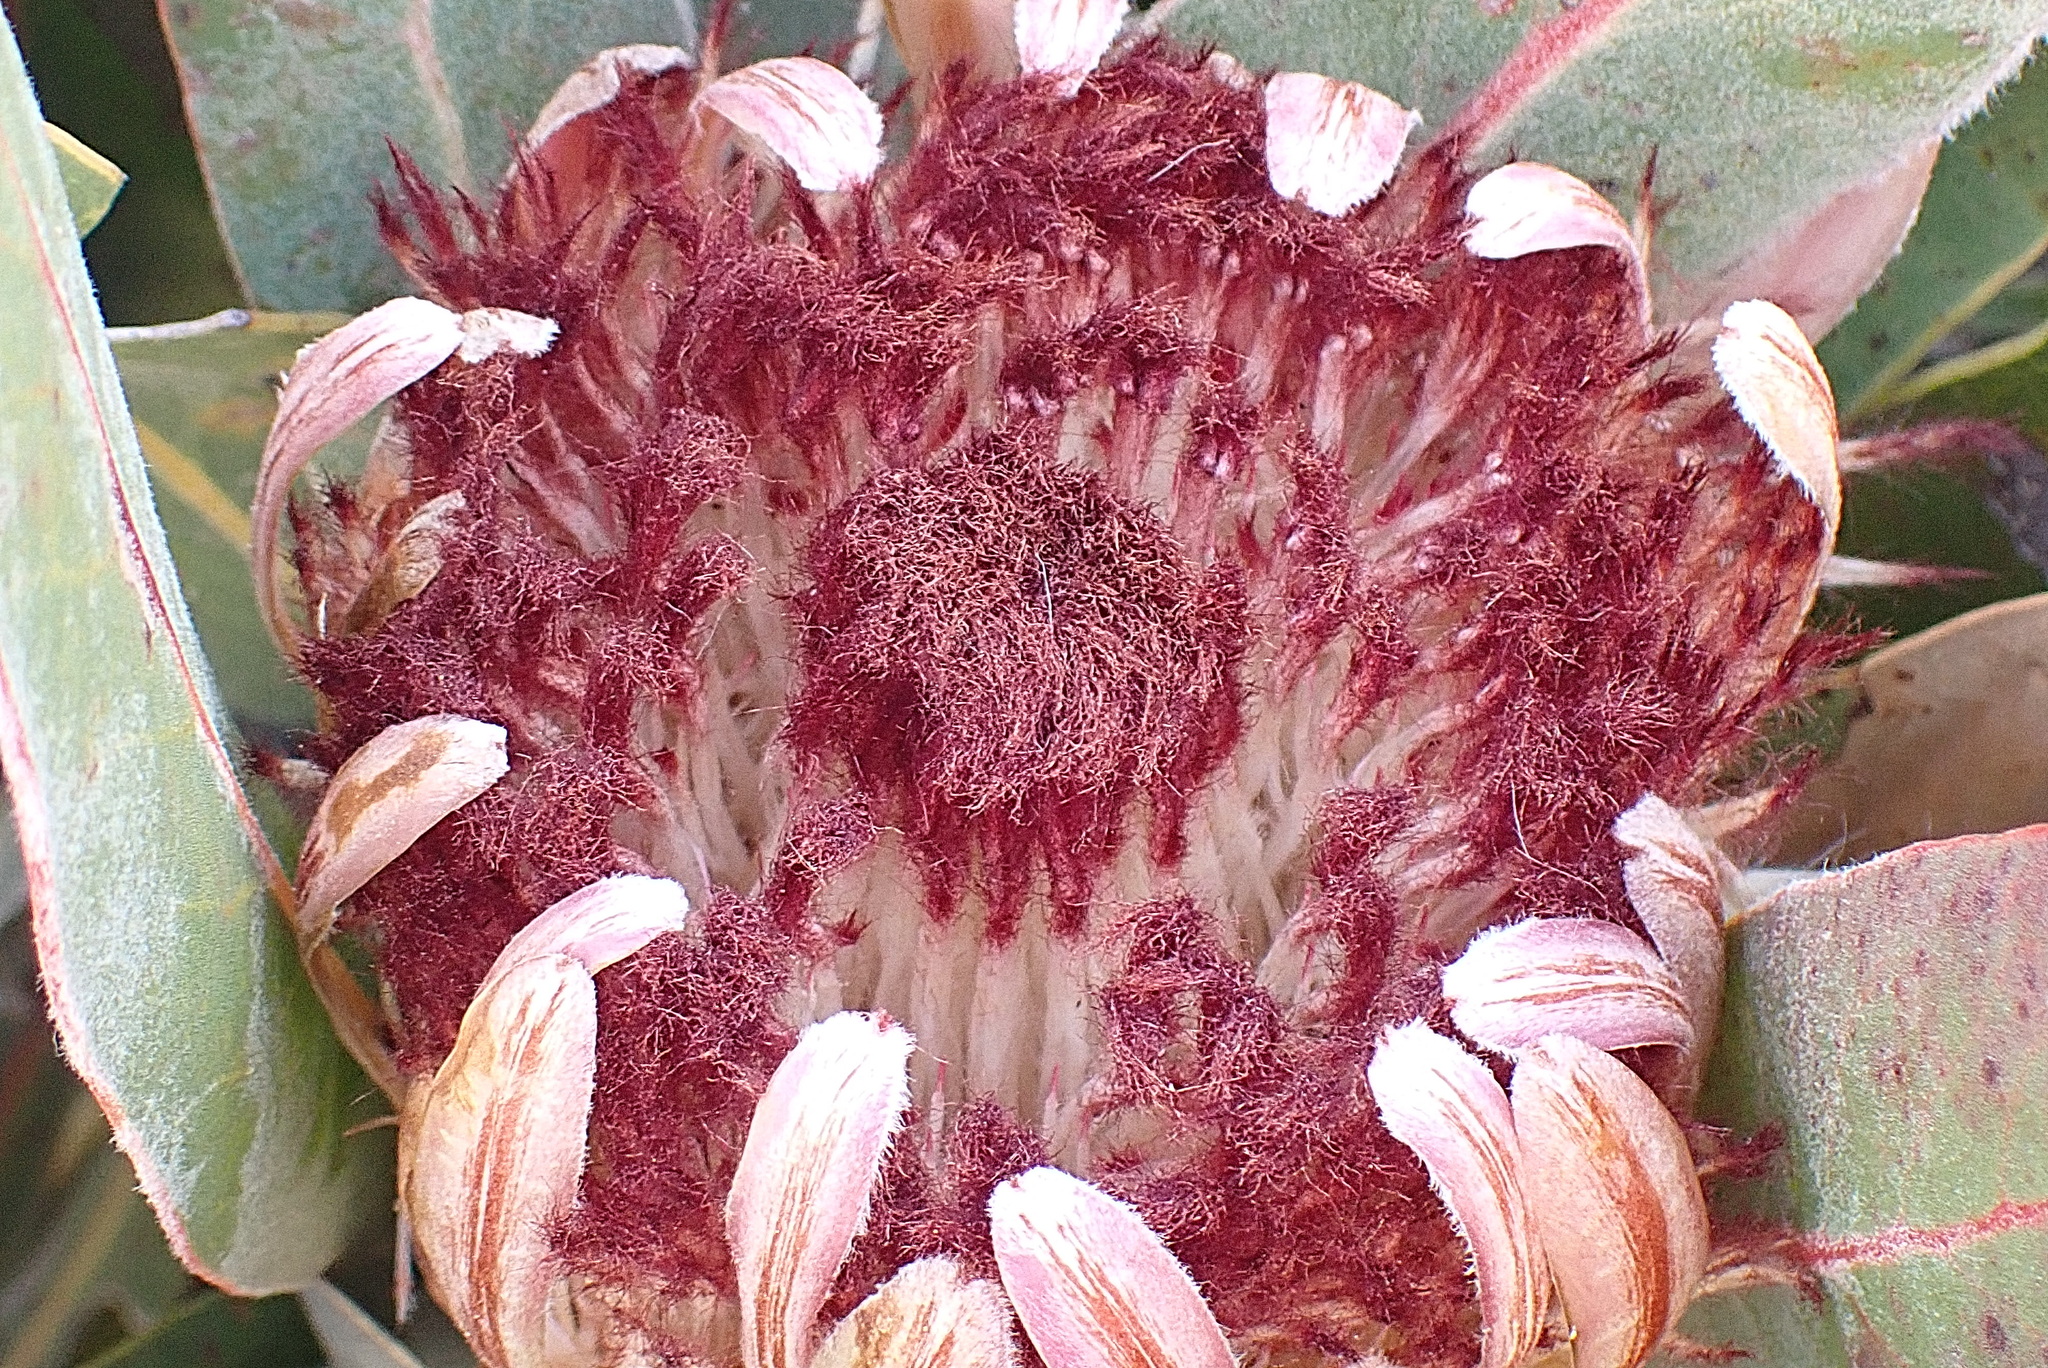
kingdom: Plantae
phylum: Tracheophyta
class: Magnoliopsida
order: Proteales
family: Proteaceae
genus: Protea
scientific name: Protea lorifolia
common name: Strap-leaved protea
